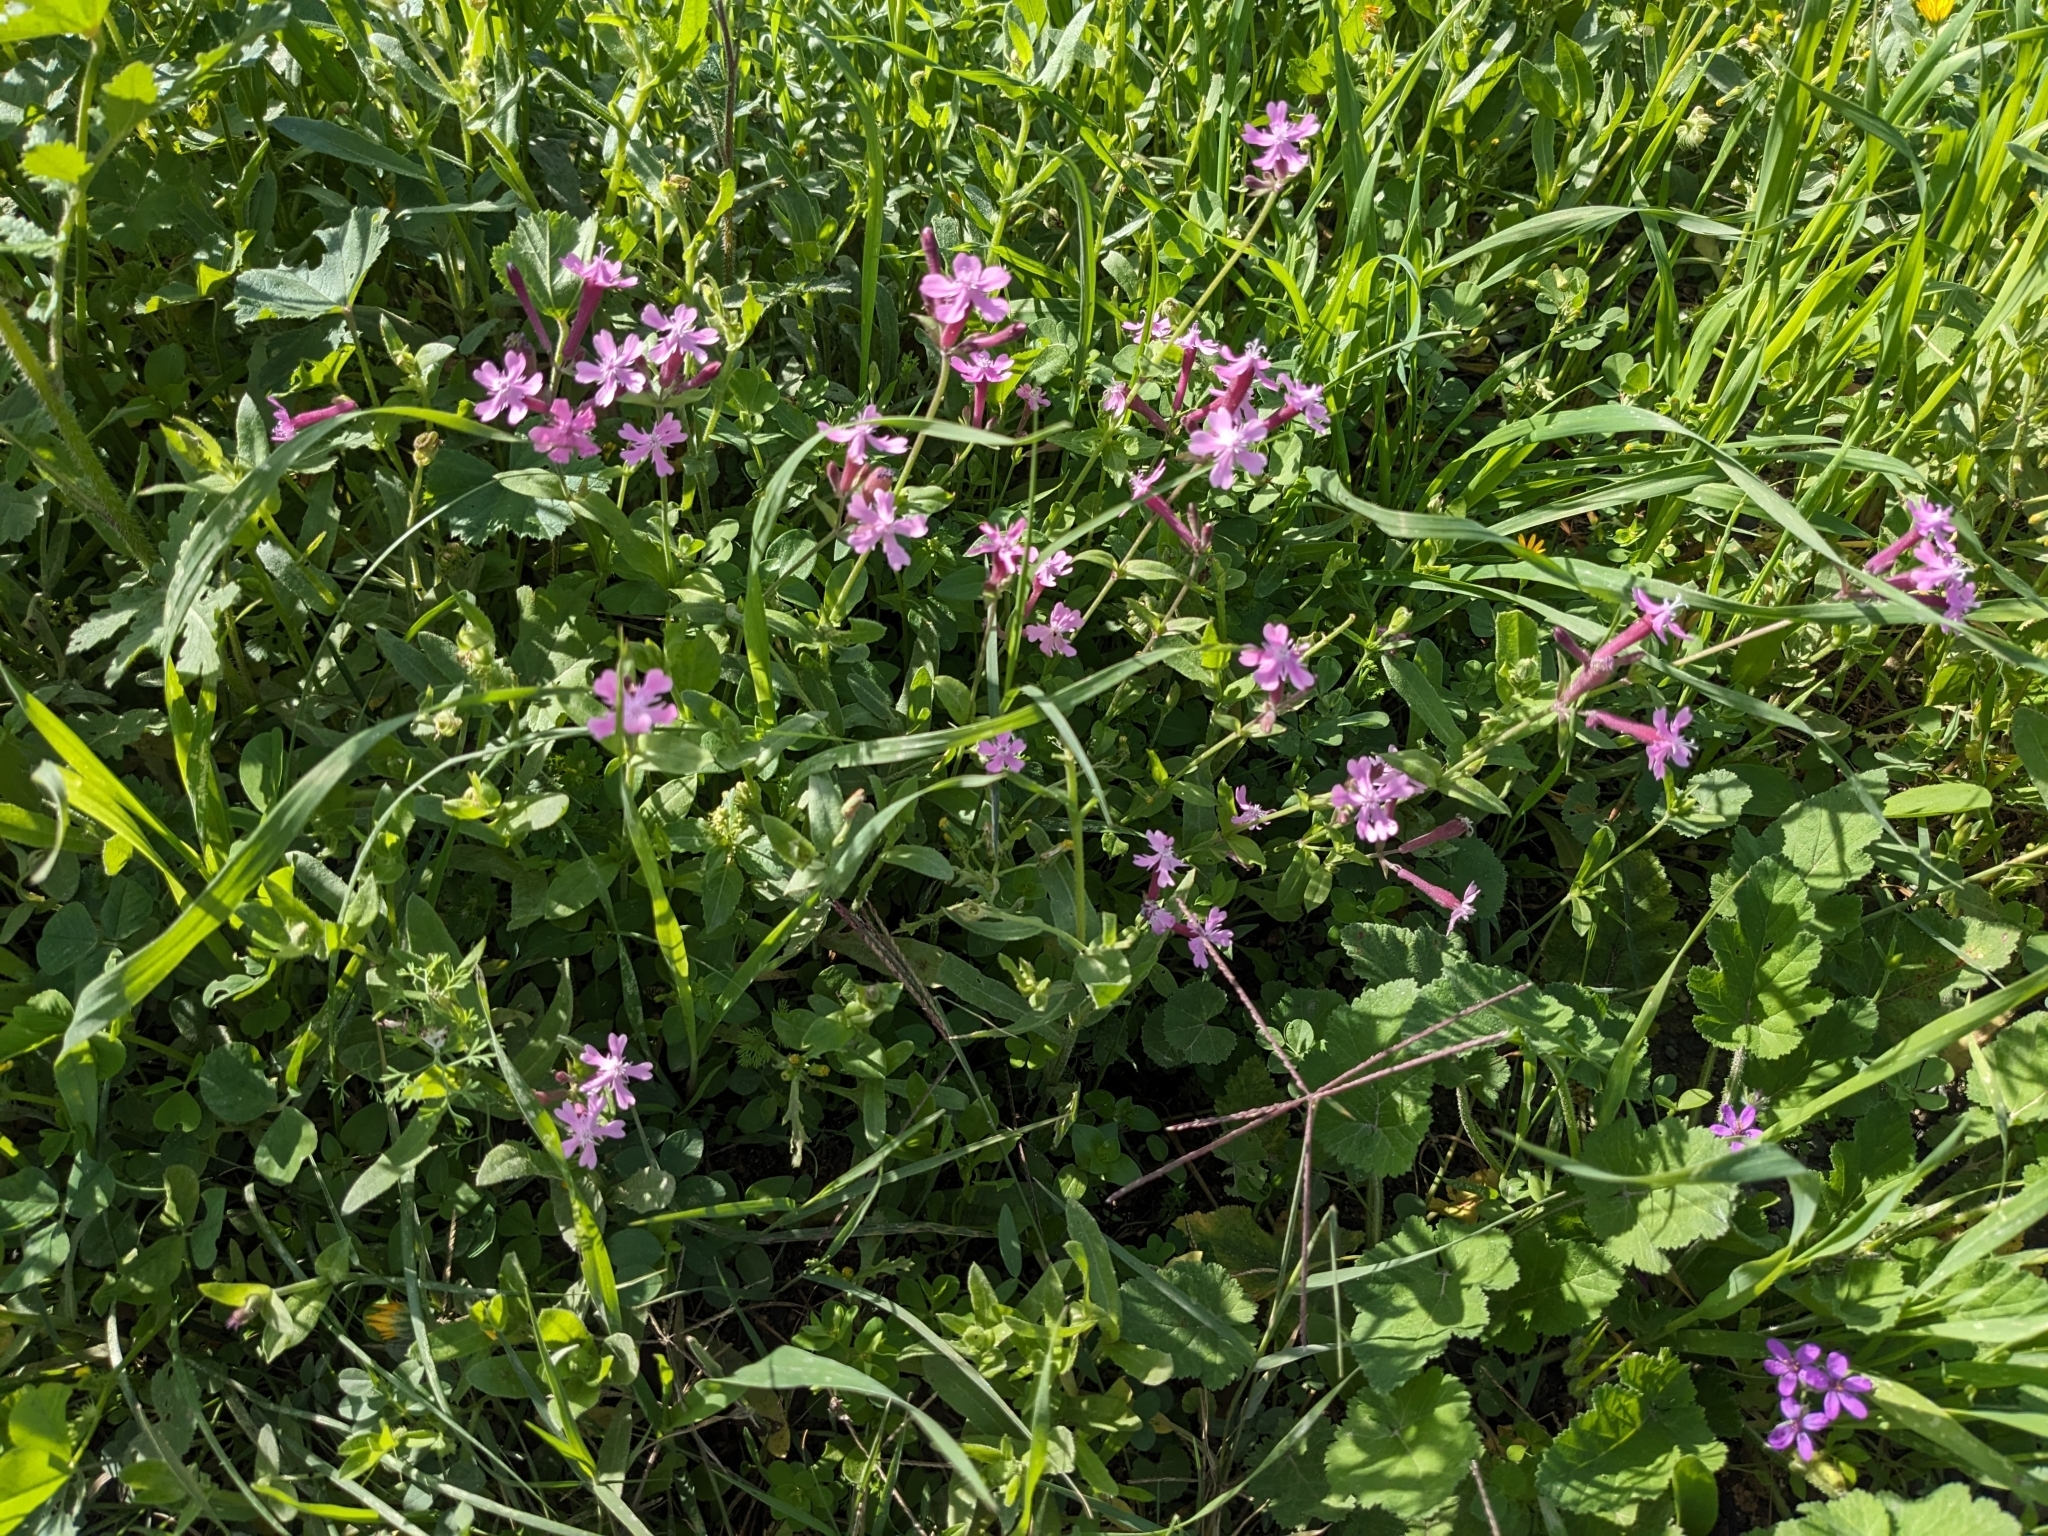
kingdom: Plantae
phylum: Tracheophyta
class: Magnoliopsida
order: Caryophyllales
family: Caryophyllaceae
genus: Silene
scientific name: Silene aegyptiaca
